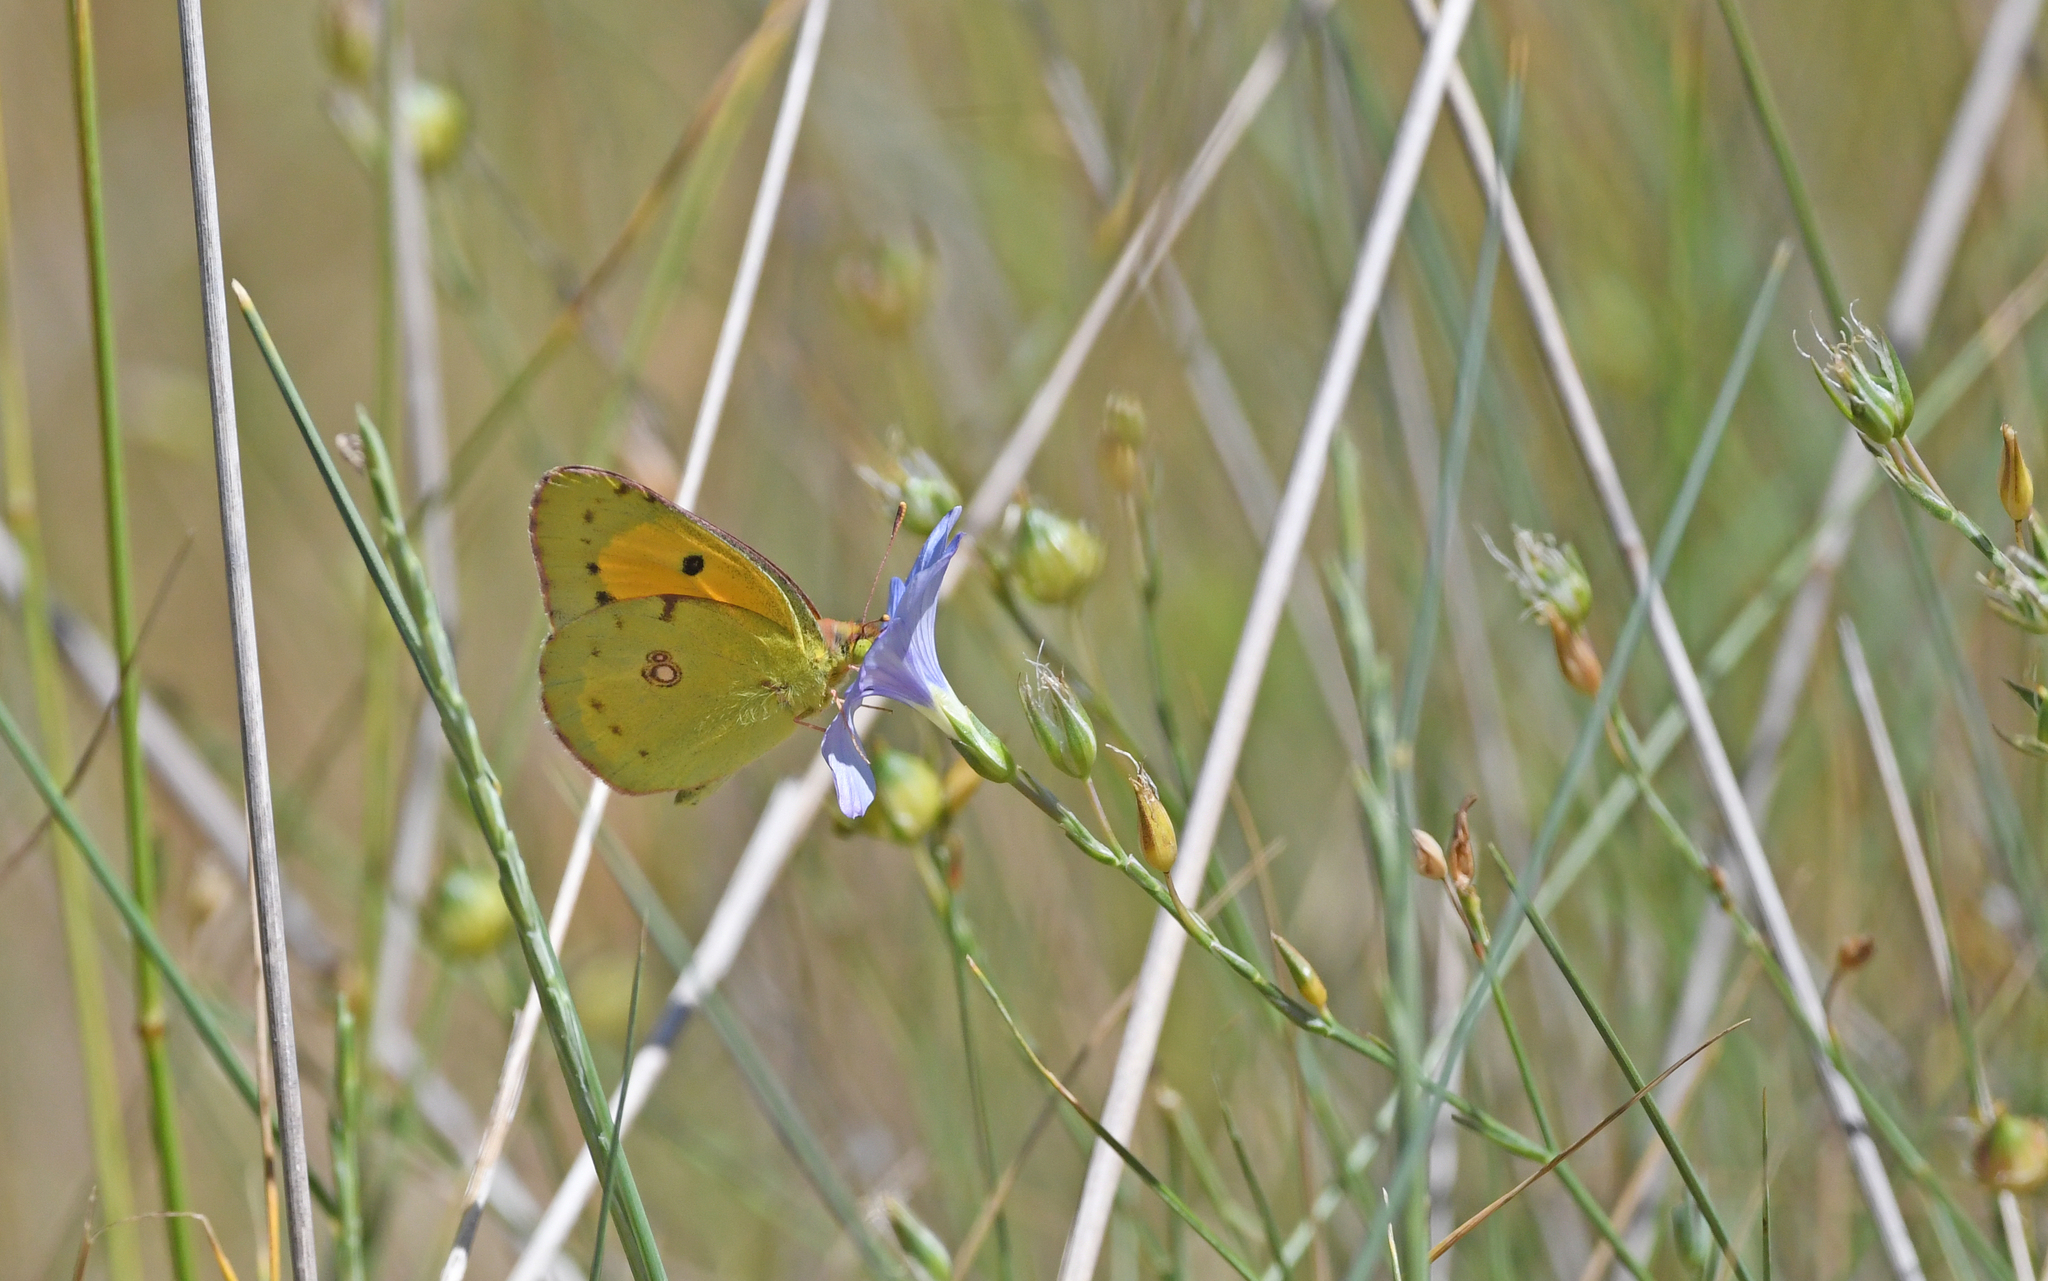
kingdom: Animalia
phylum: Arthropoda
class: Insecta
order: Lepidoptera
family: Pieridae
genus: Colias
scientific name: Colias croceus
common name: Clouded yellow
